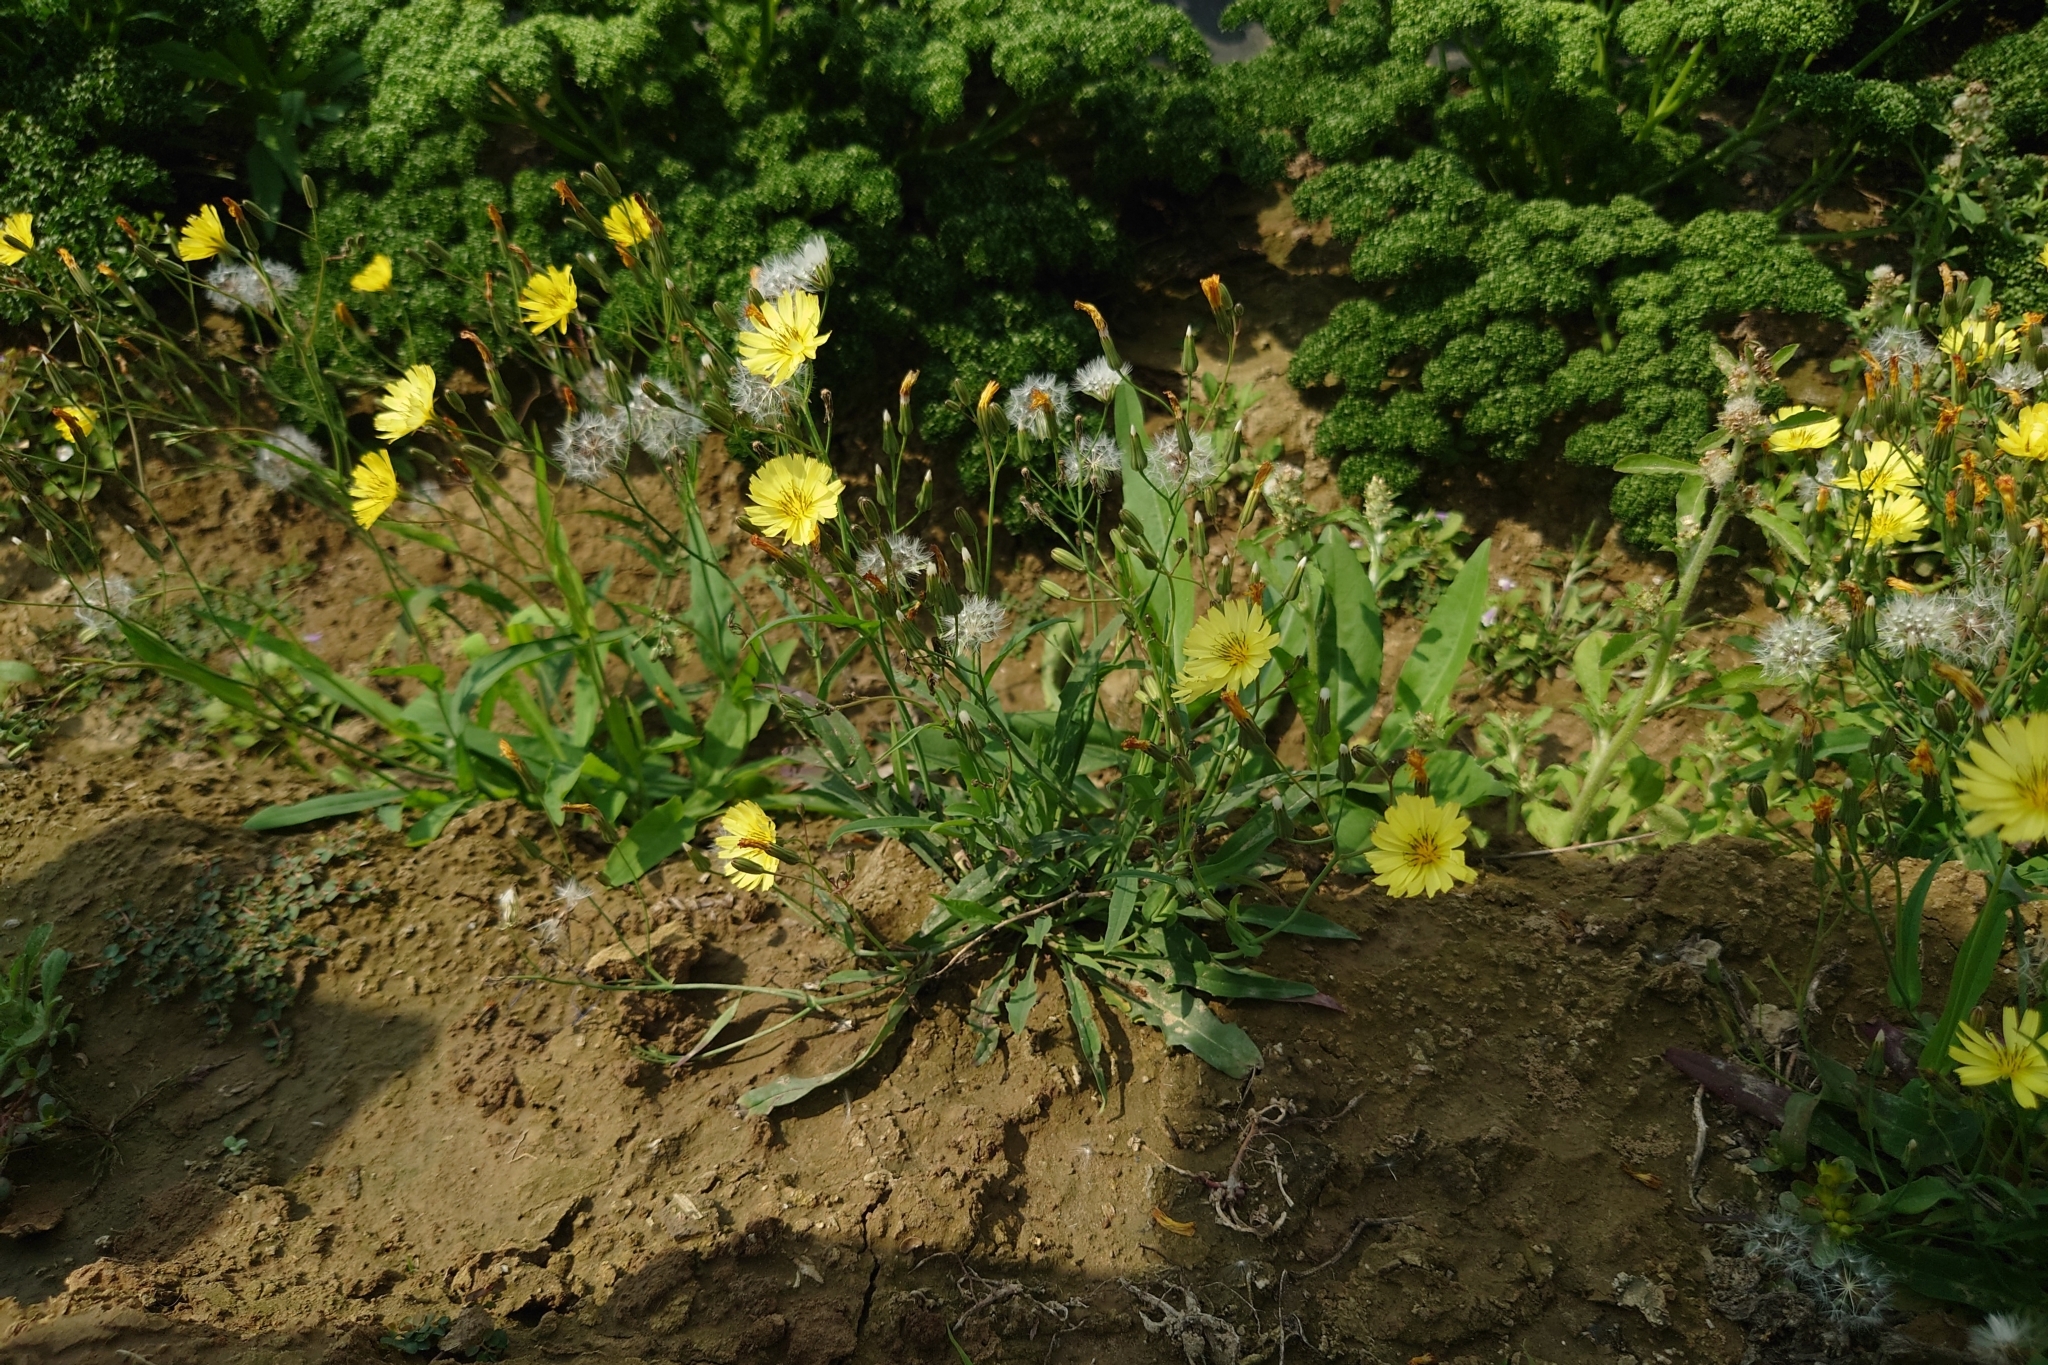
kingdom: Plantae
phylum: Tracheophyta
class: Magnoliopsida
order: Asterales
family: Asteraceae
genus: Ixeris
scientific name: Ixeris chinensis
